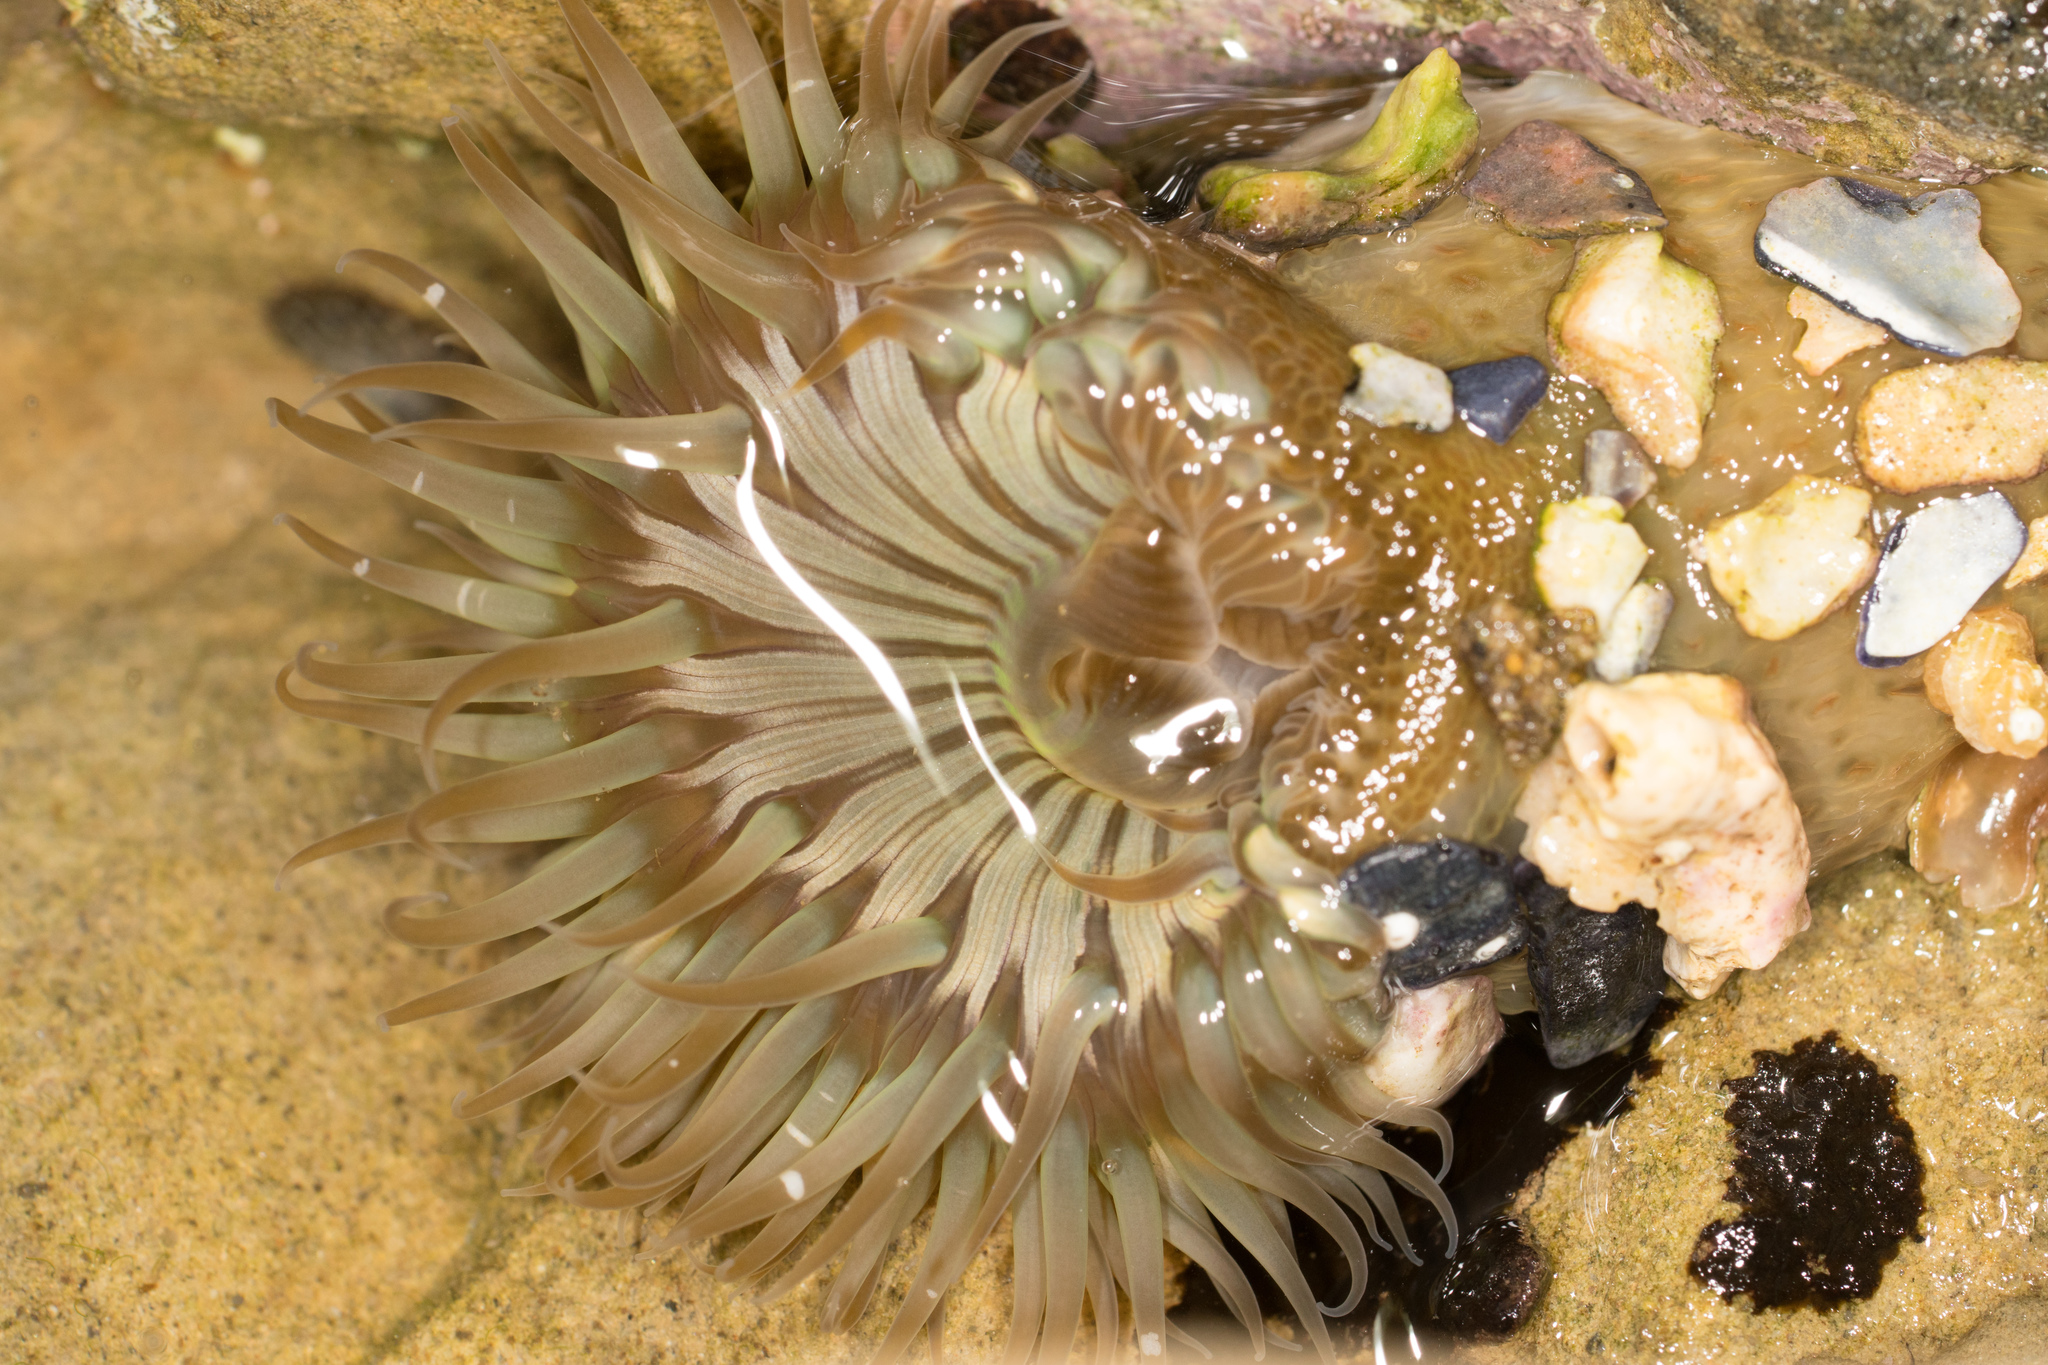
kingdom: Animalia
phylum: Cnidaria
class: Anthozoa
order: Actiniaria
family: Actiniidae
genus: Anthopleura
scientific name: Anthopleura sola
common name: Sun anemone
